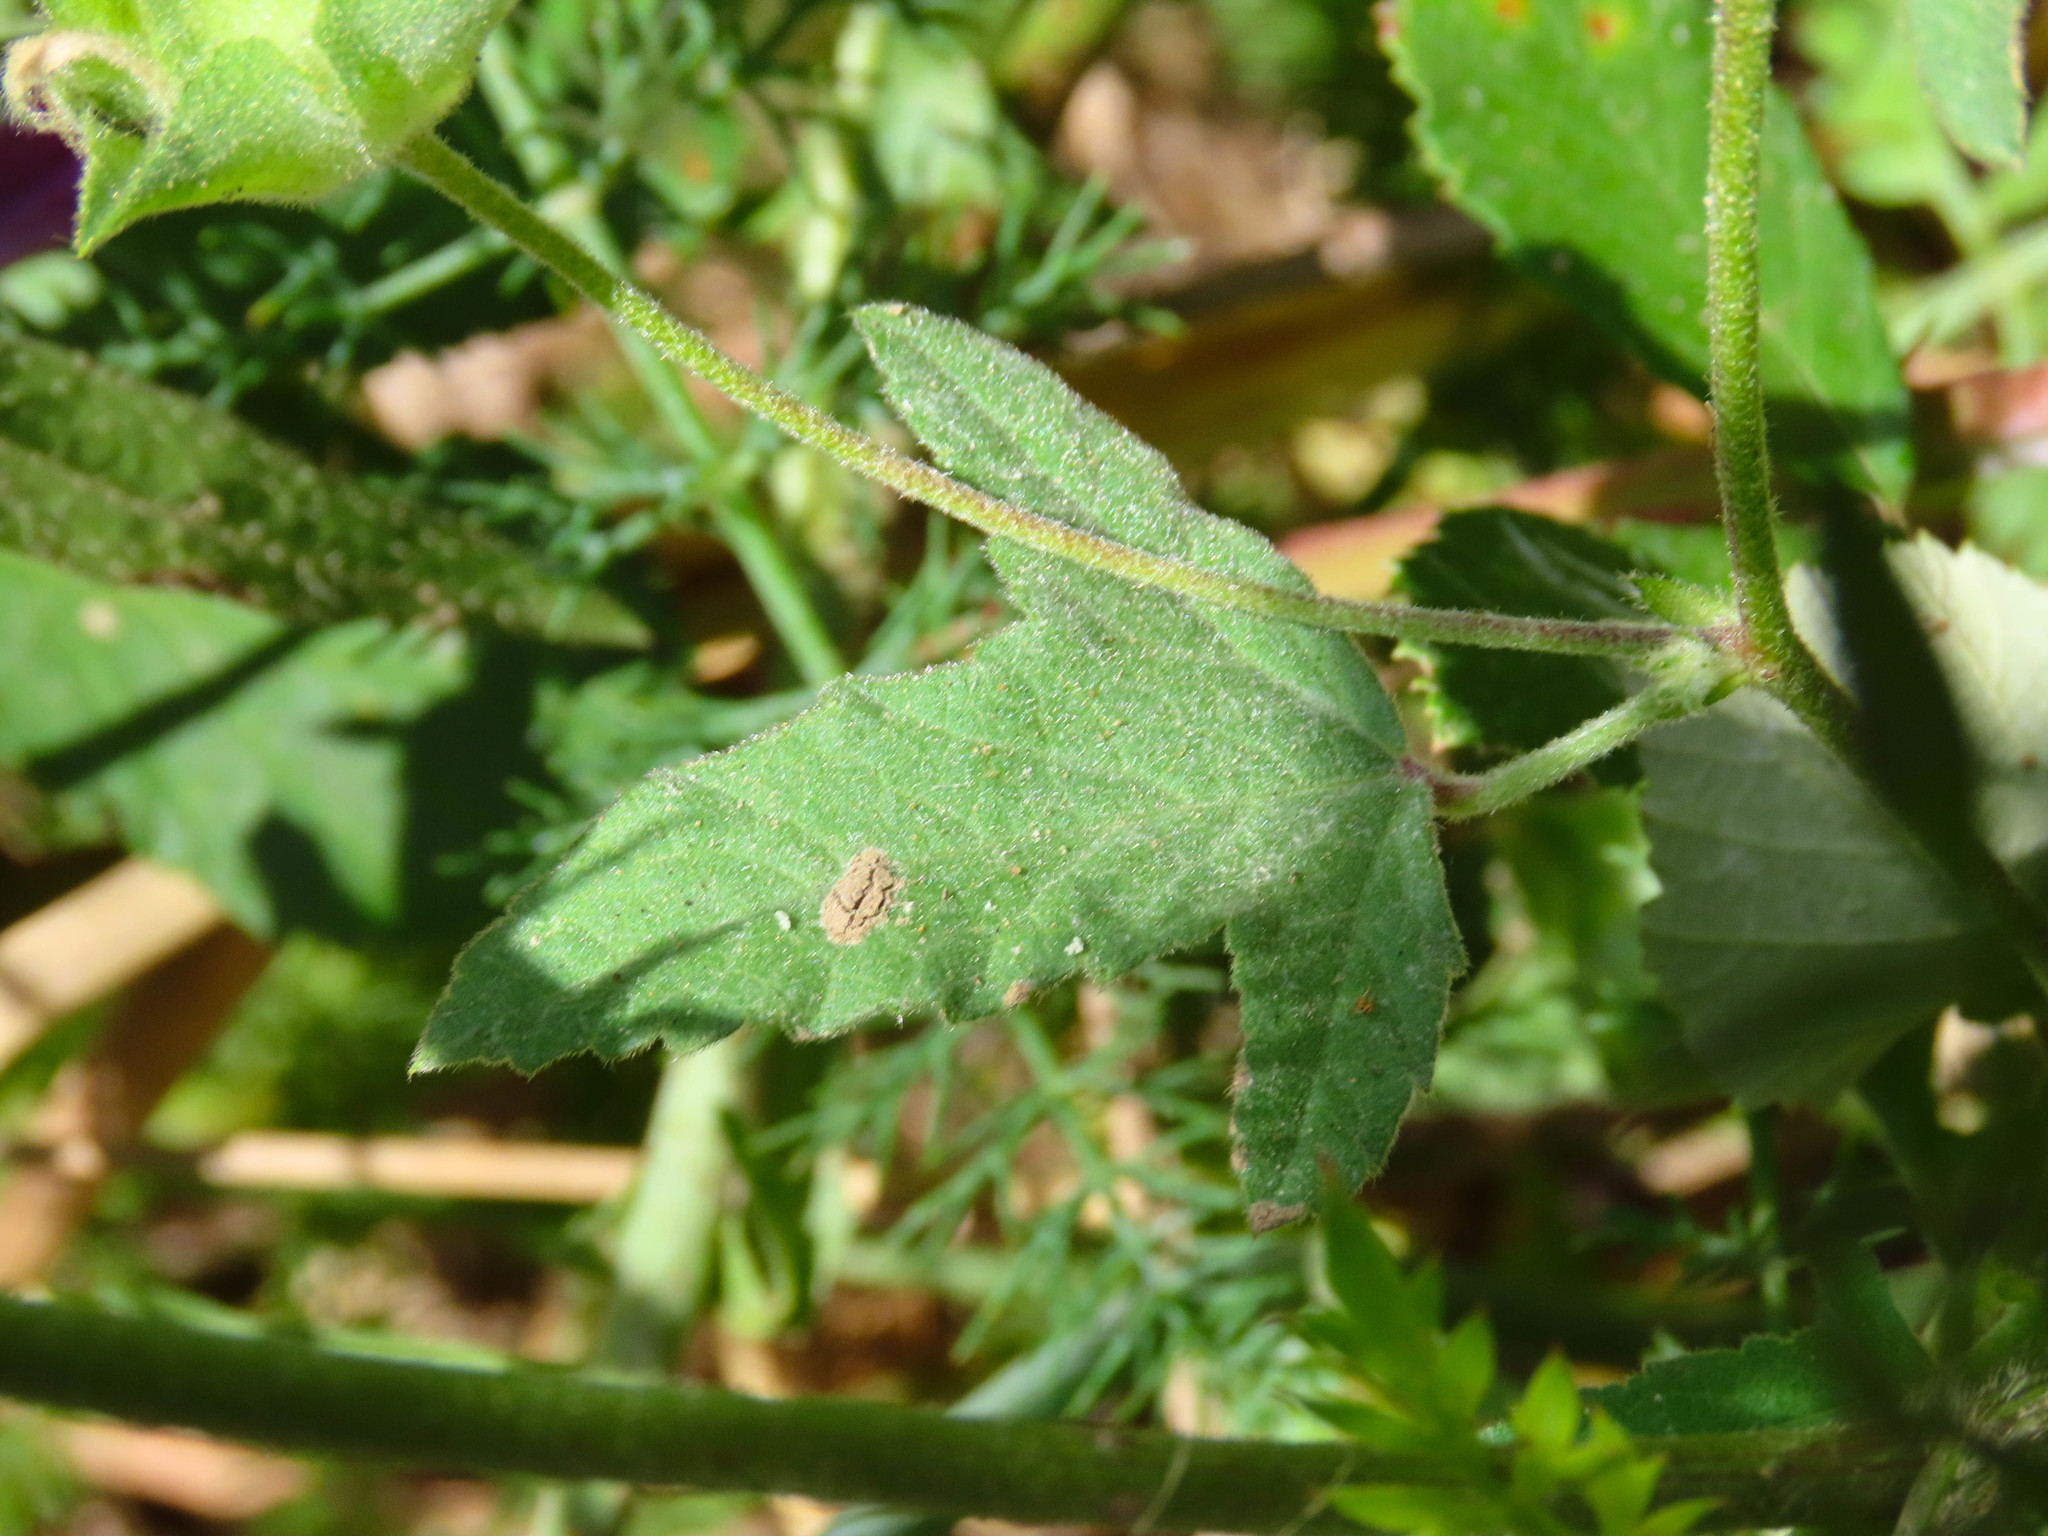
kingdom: Plantae
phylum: Tracheophyta
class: Magnoliopsida
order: Malvales
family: Malvaceae
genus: Malva
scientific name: Malva punctata
